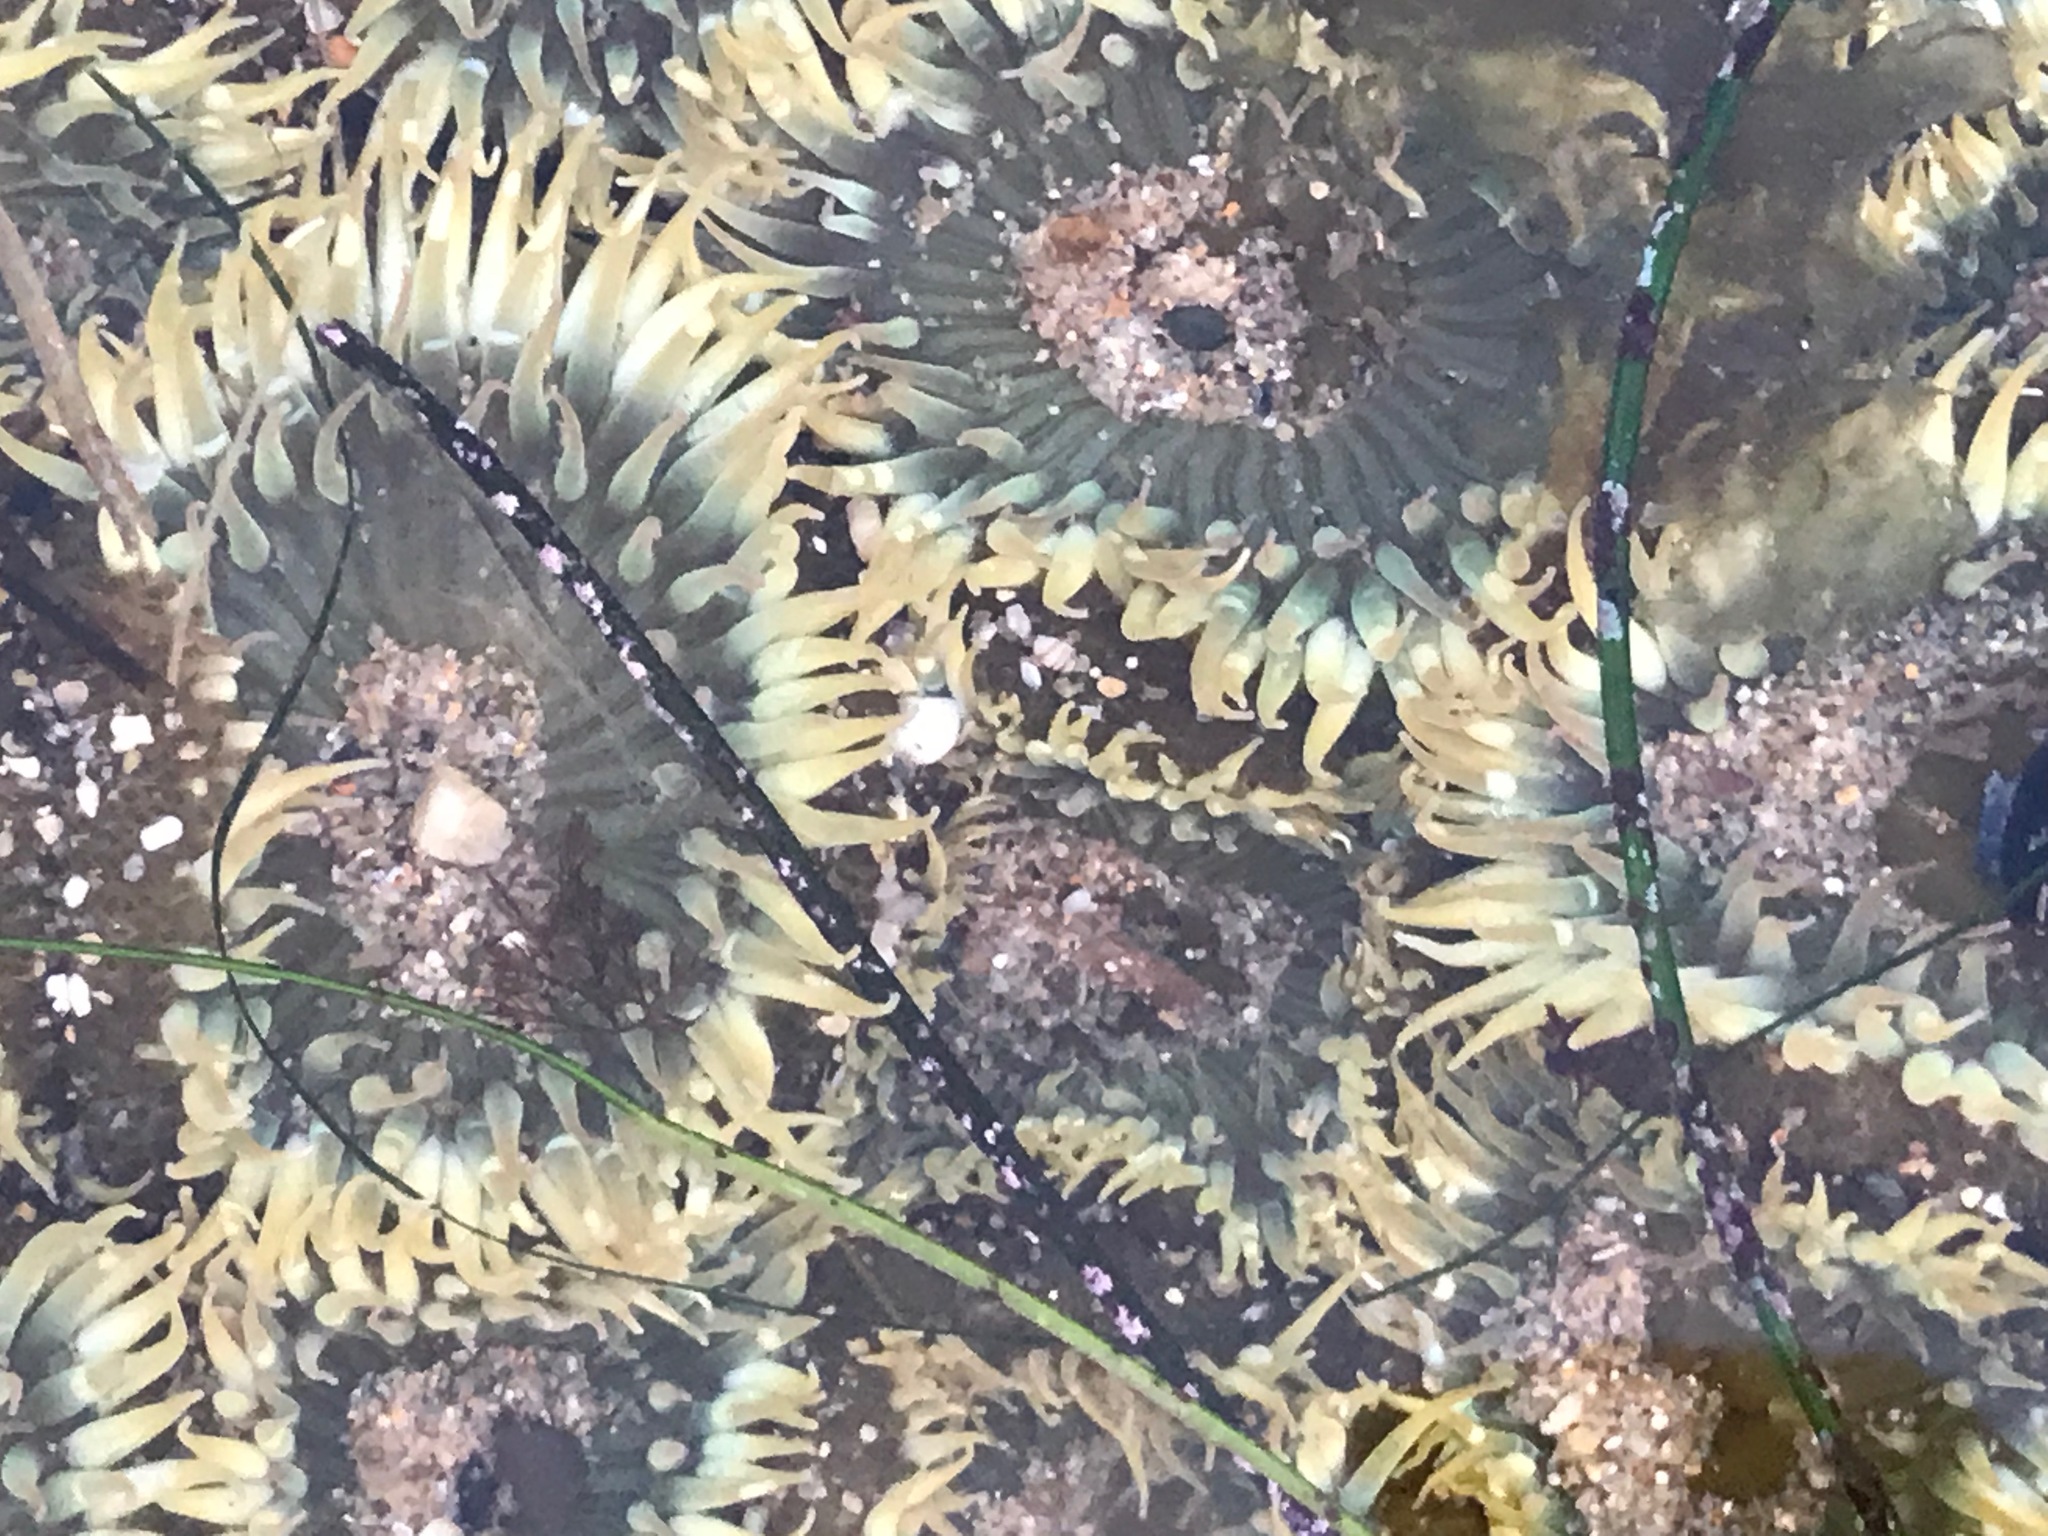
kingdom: Animalia
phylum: Cnidaria
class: Anthozoa
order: Actiniaria
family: Actiniidae
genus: Anthopleura
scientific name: Anthopleura elegantissima
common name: Clonal anemone
